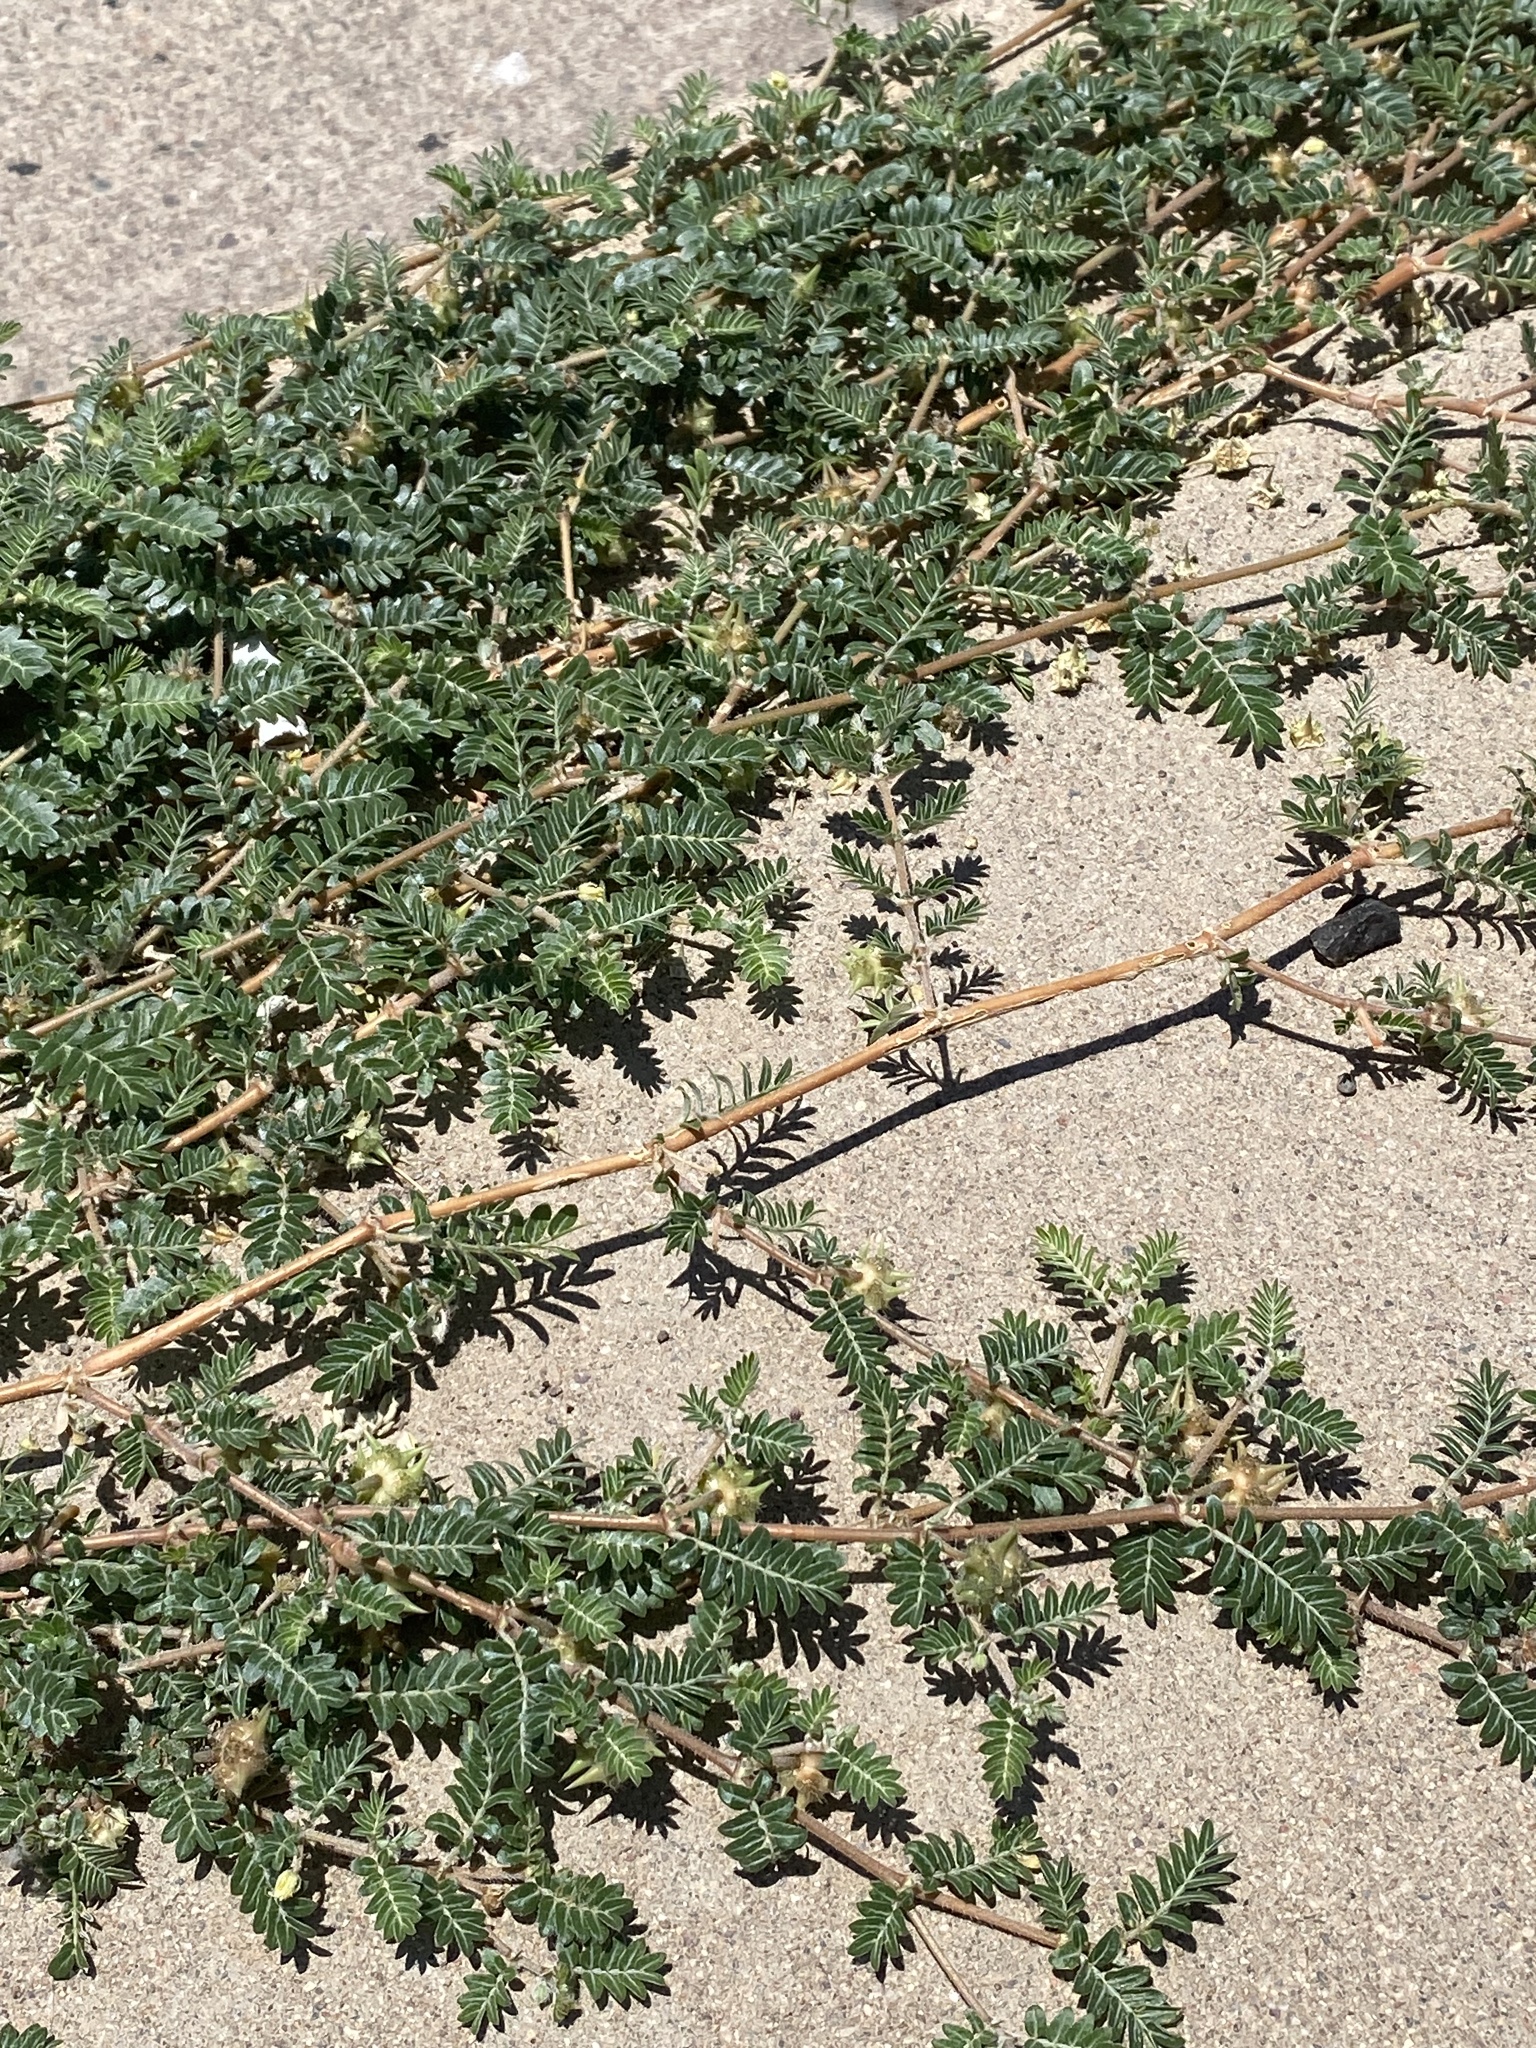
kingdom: Plantae
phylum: Tracheophyta
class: Magnoliopsida
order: Zygophyllales
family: Zygophyllaceae
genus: Tribulus
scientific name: Tribulus terrestris
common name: Puncturevine
